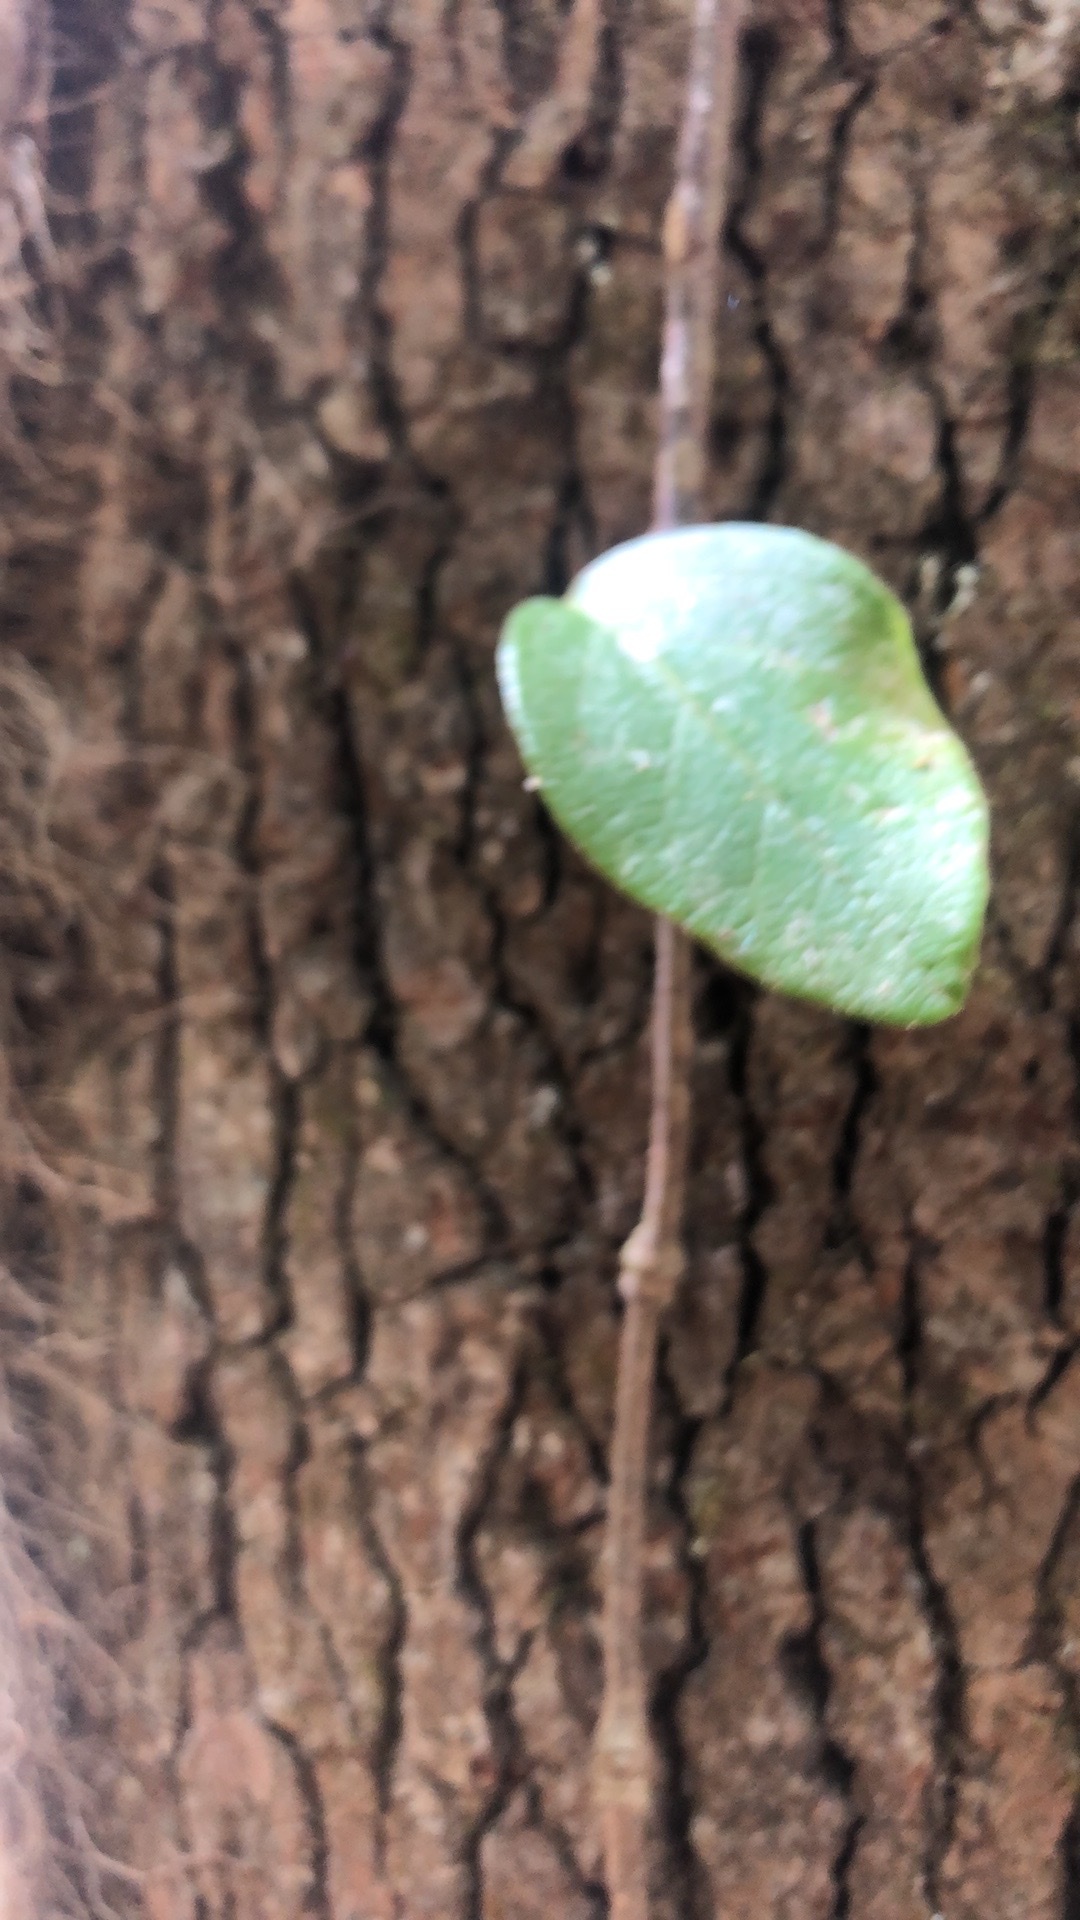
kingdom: Plantae
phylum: Tracheophyta
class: Magnoliopsida
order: Cornales
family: Hydrangeaceae
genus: Hydrangea
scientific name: Hydrangea barbara
